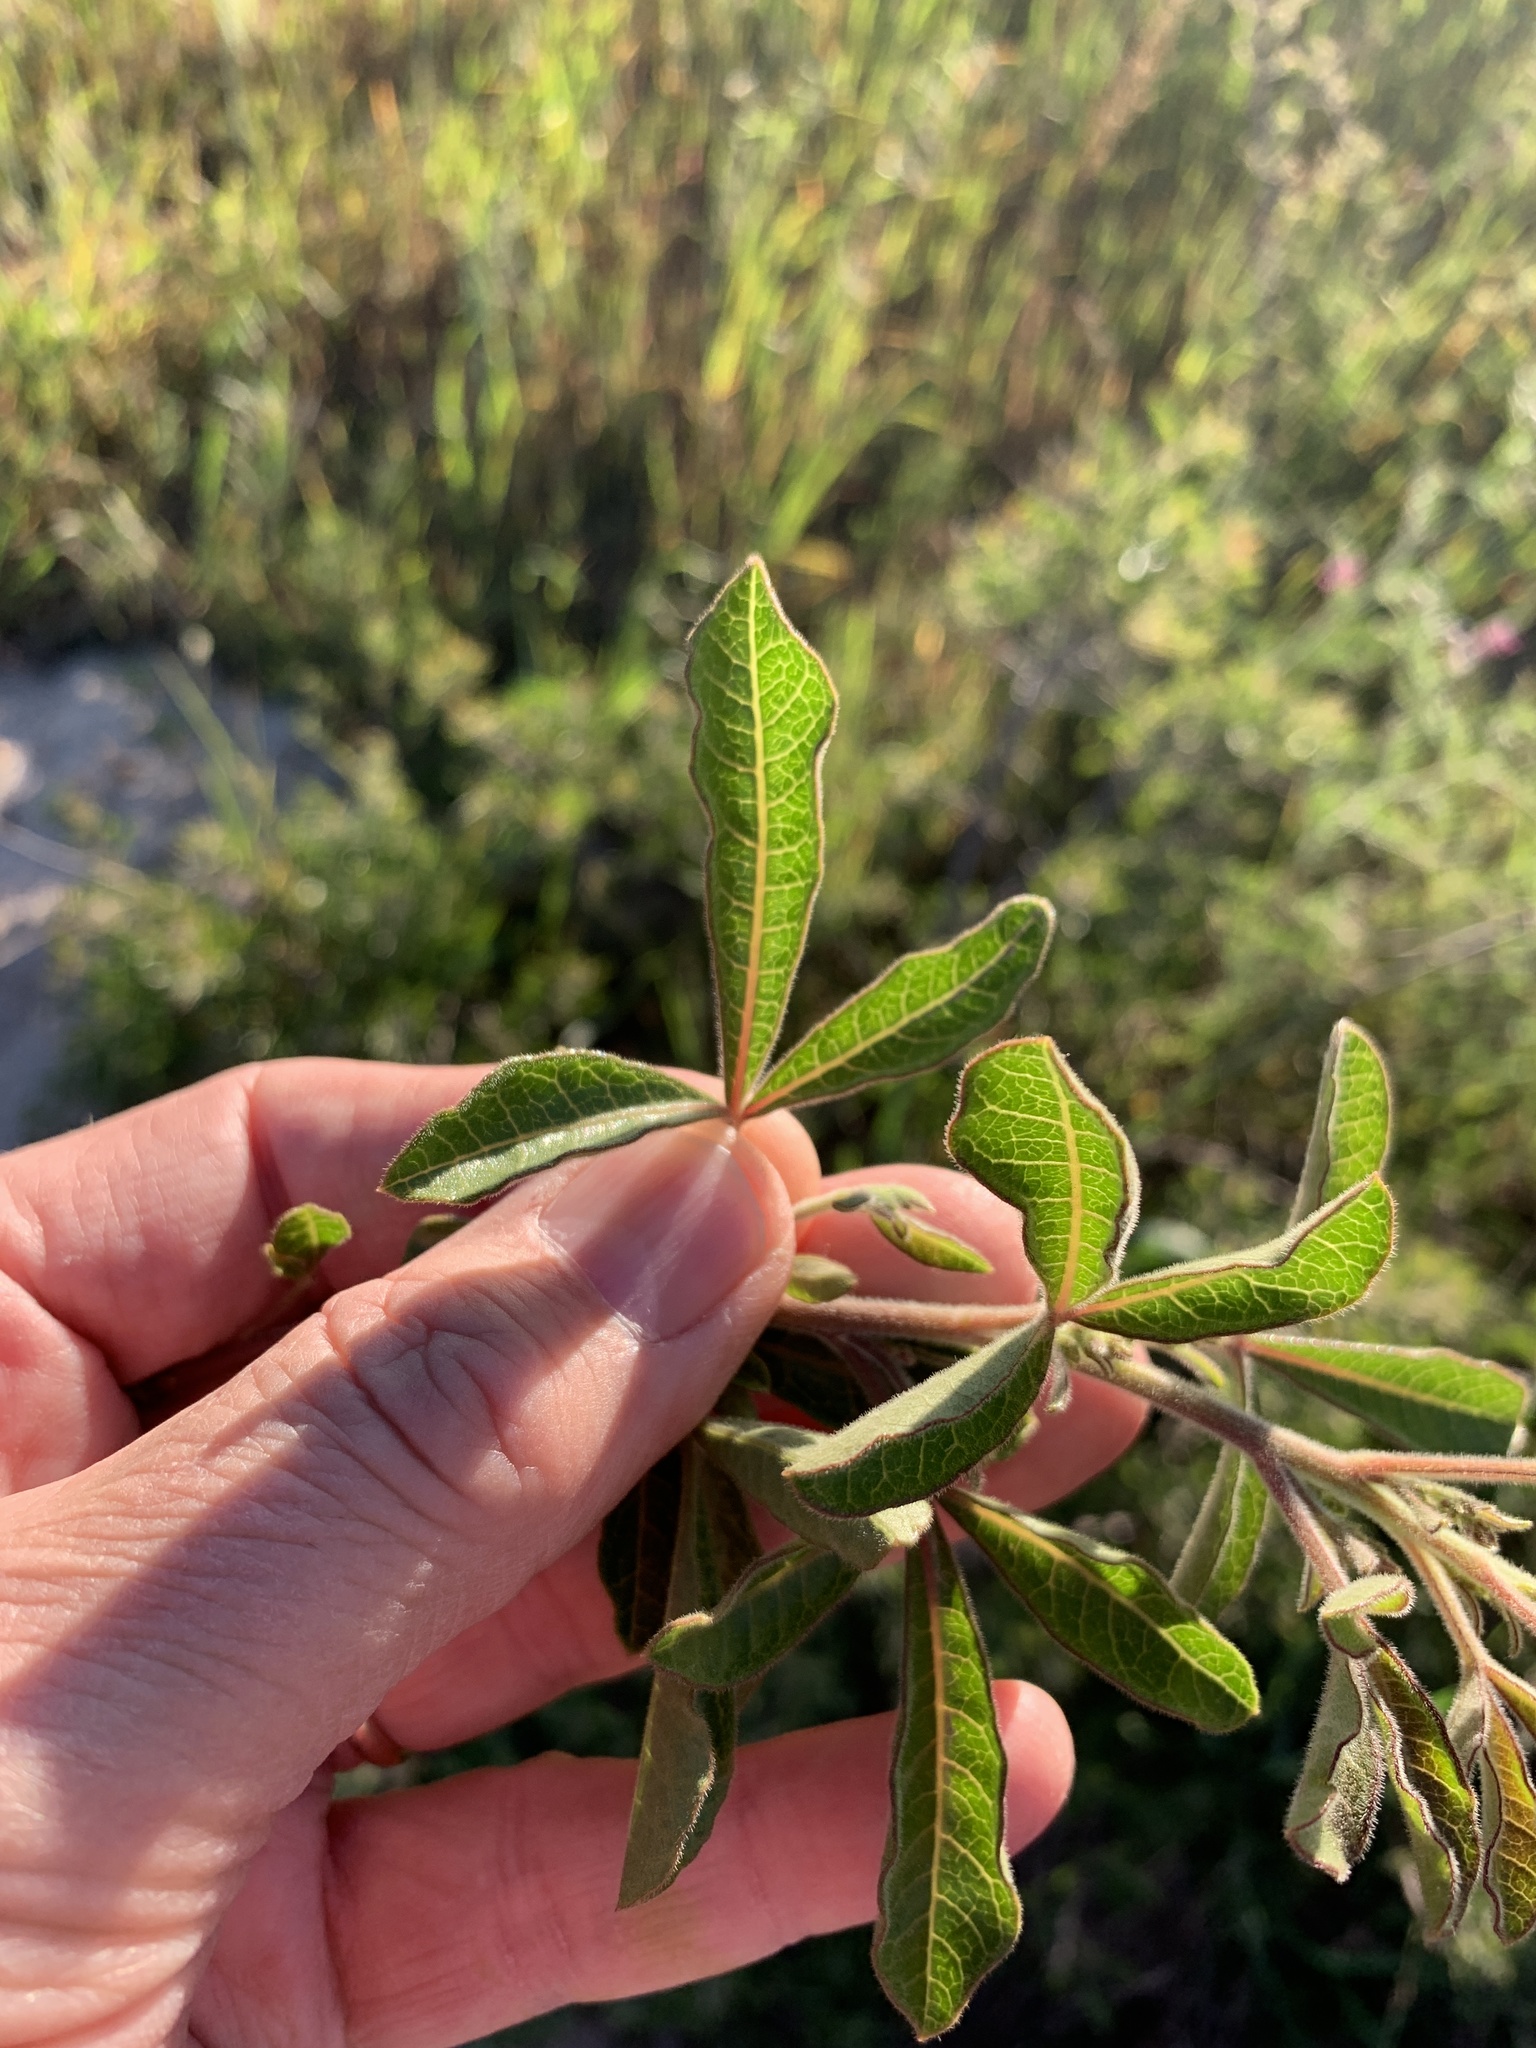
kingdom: Plantae
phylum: Tracheophyta
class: Magnoliopsida
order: Sapindales
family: Anacardiaceae
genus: Searsia
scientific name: Searsia laevigata
